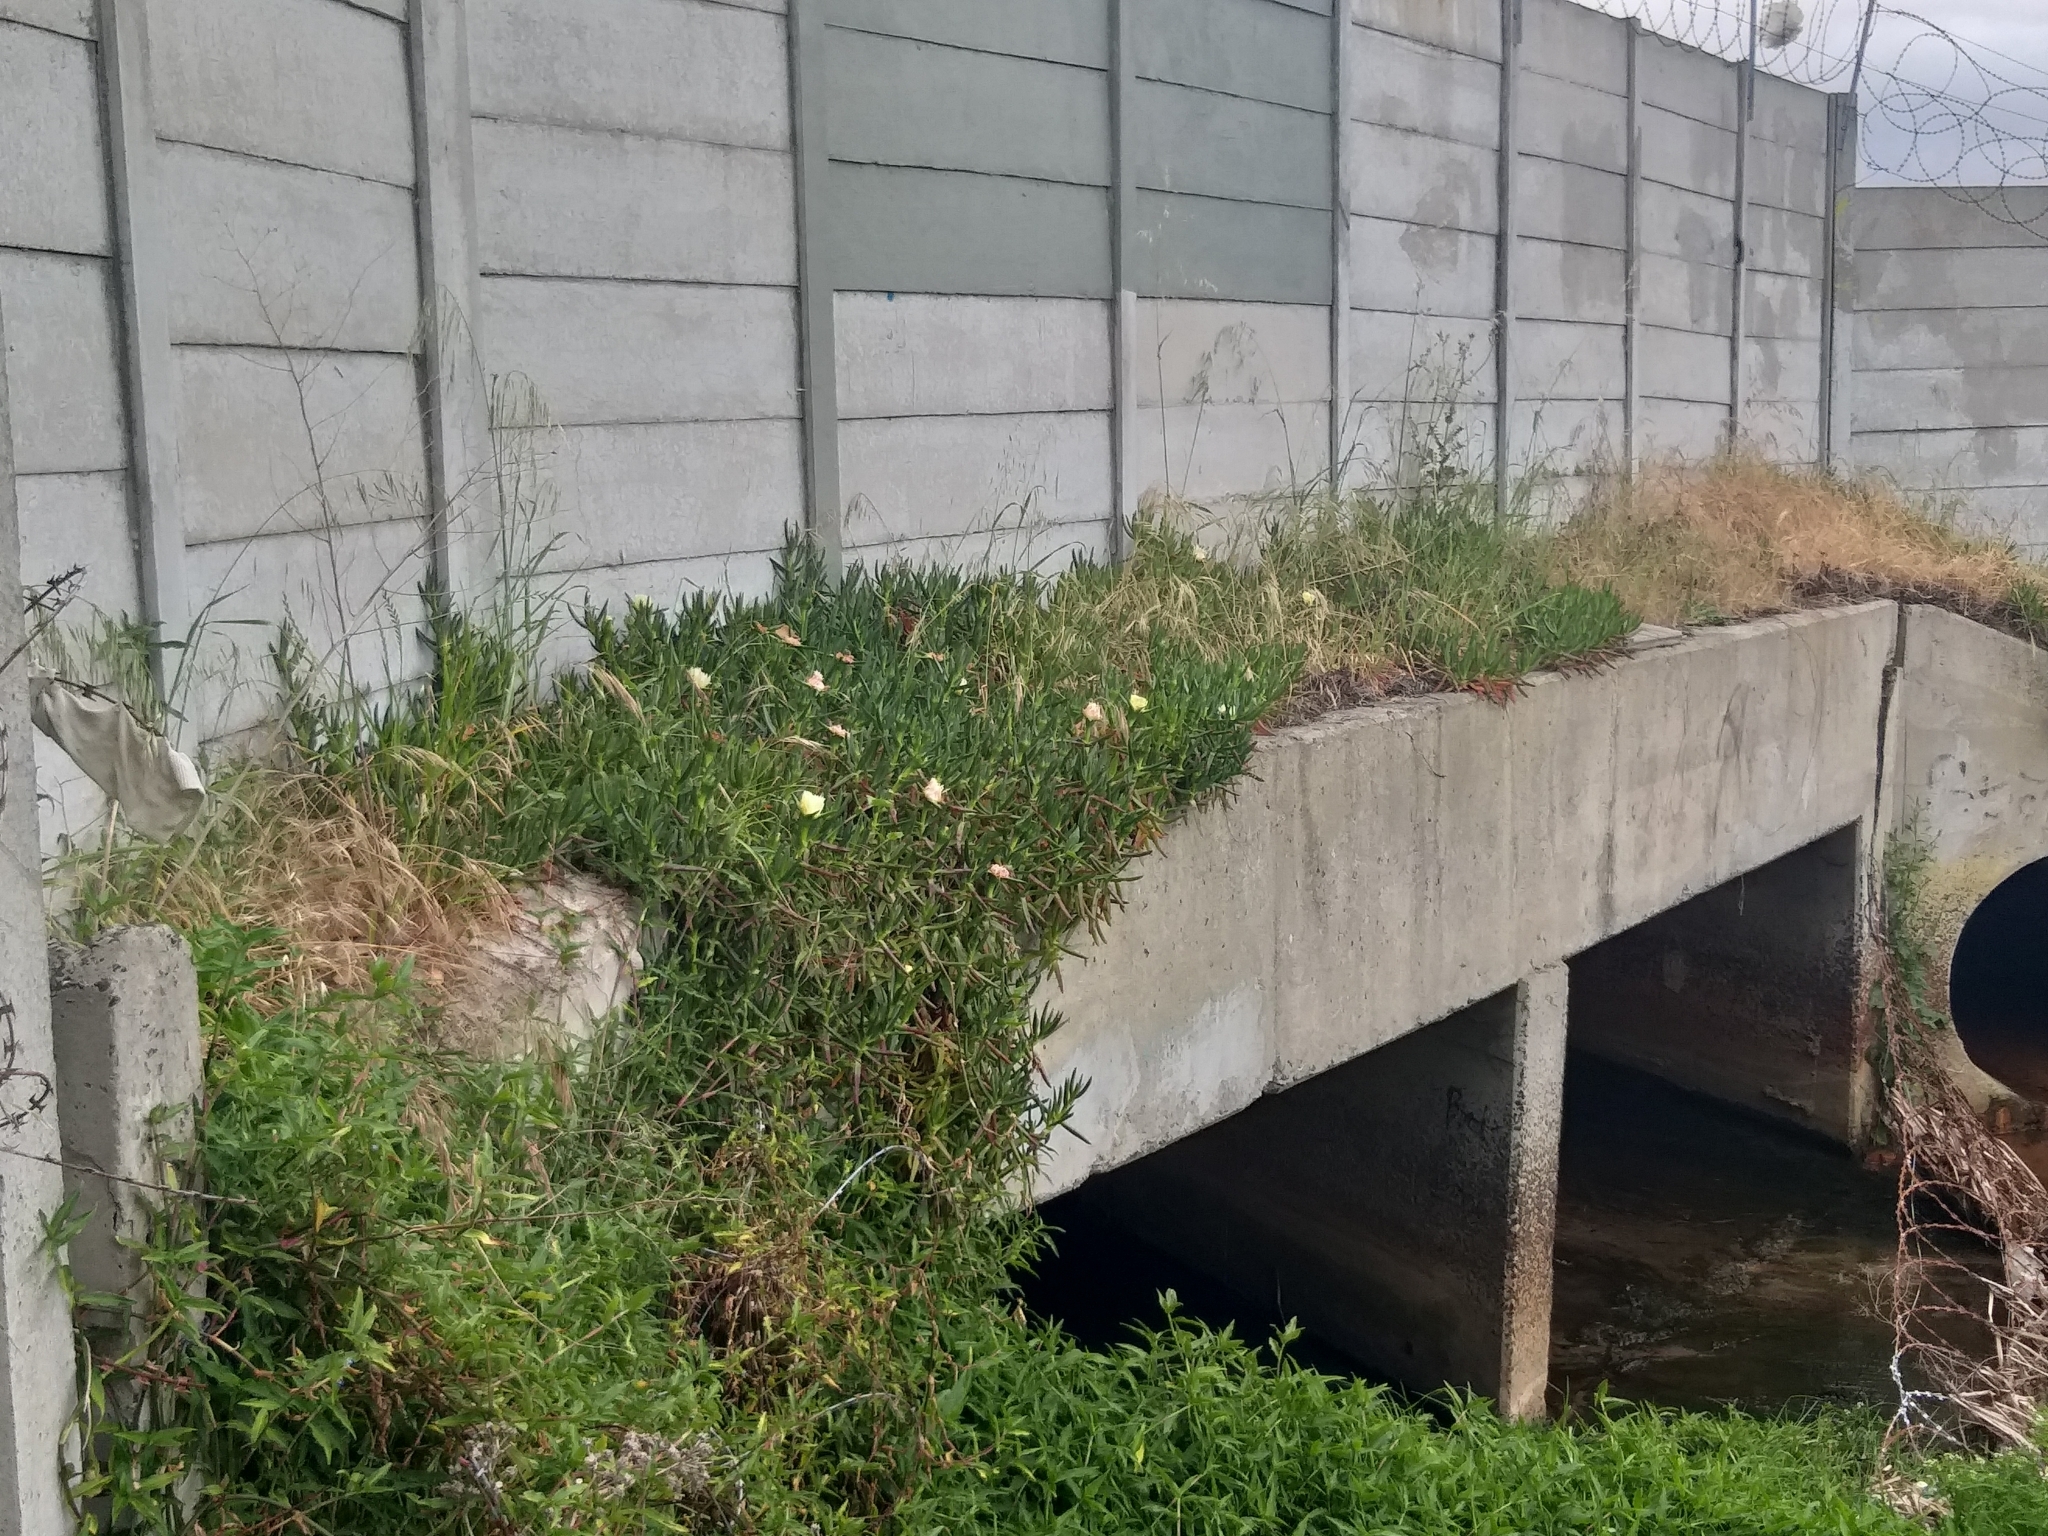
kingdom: Plantae
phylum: Tracheophyta
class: Magnoliopsida
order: Caryophyllales
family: Aizoaceae
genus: Carpobrotus
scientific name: Carpobrotus edulis
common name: Hottentot-fig
